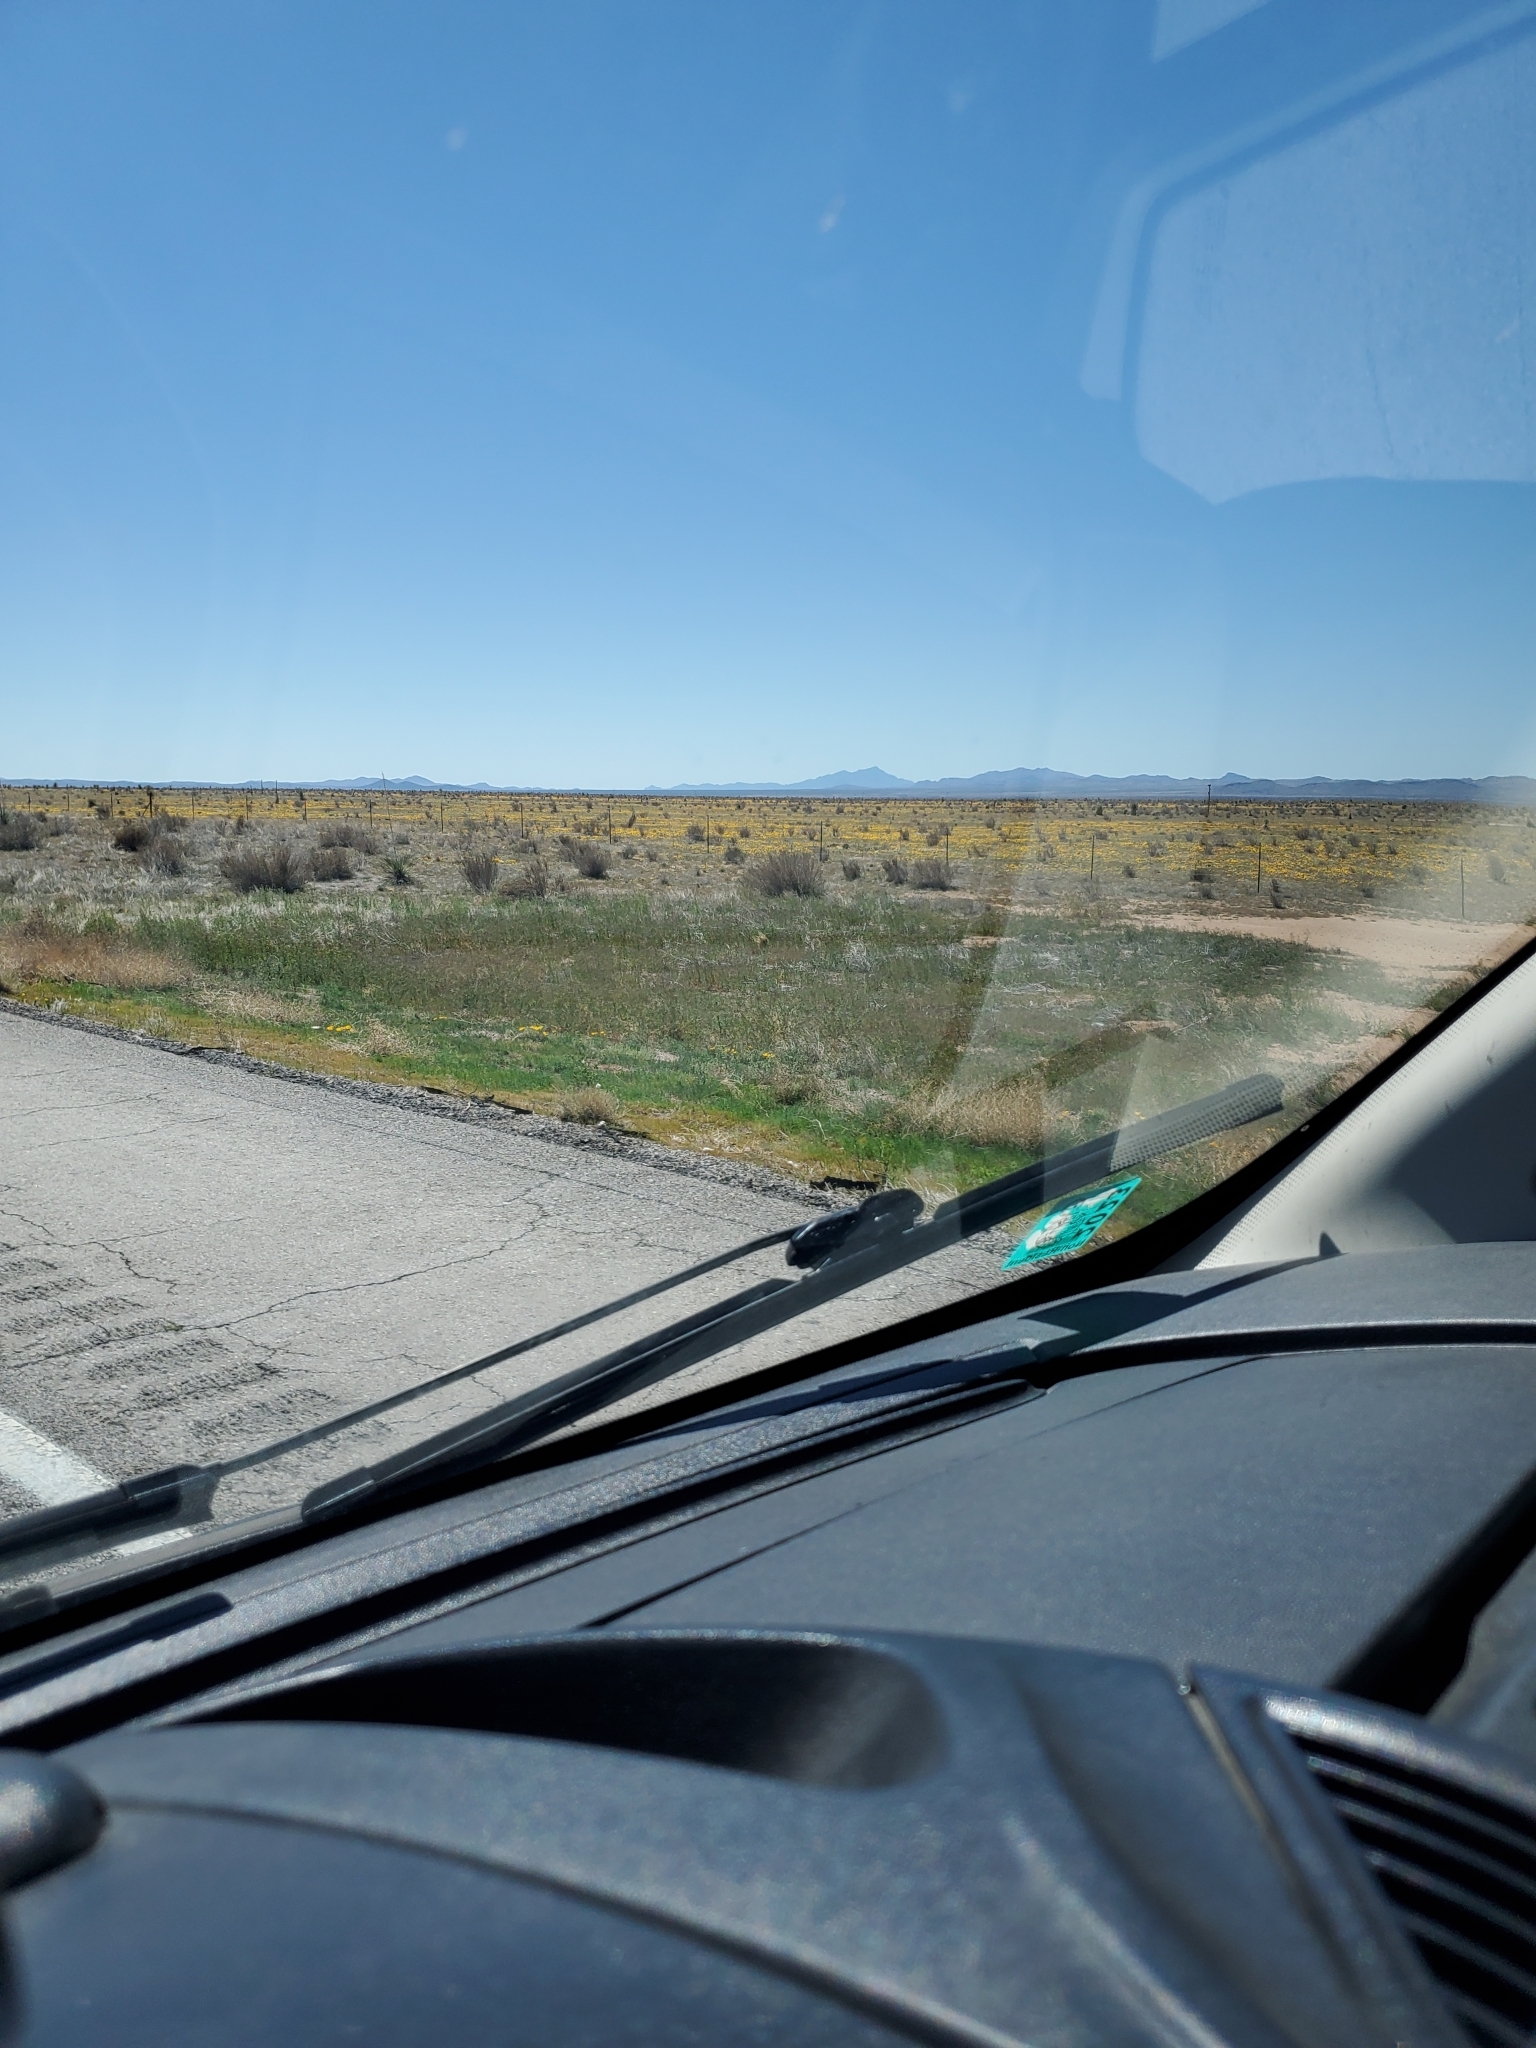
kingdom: Plantae
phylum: Tracheophyta
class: Magnoliopsida
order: Ranunculales
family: Papaveraceae
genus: Eschscholzia
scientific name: Eschscholzia californica
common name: California poppy
